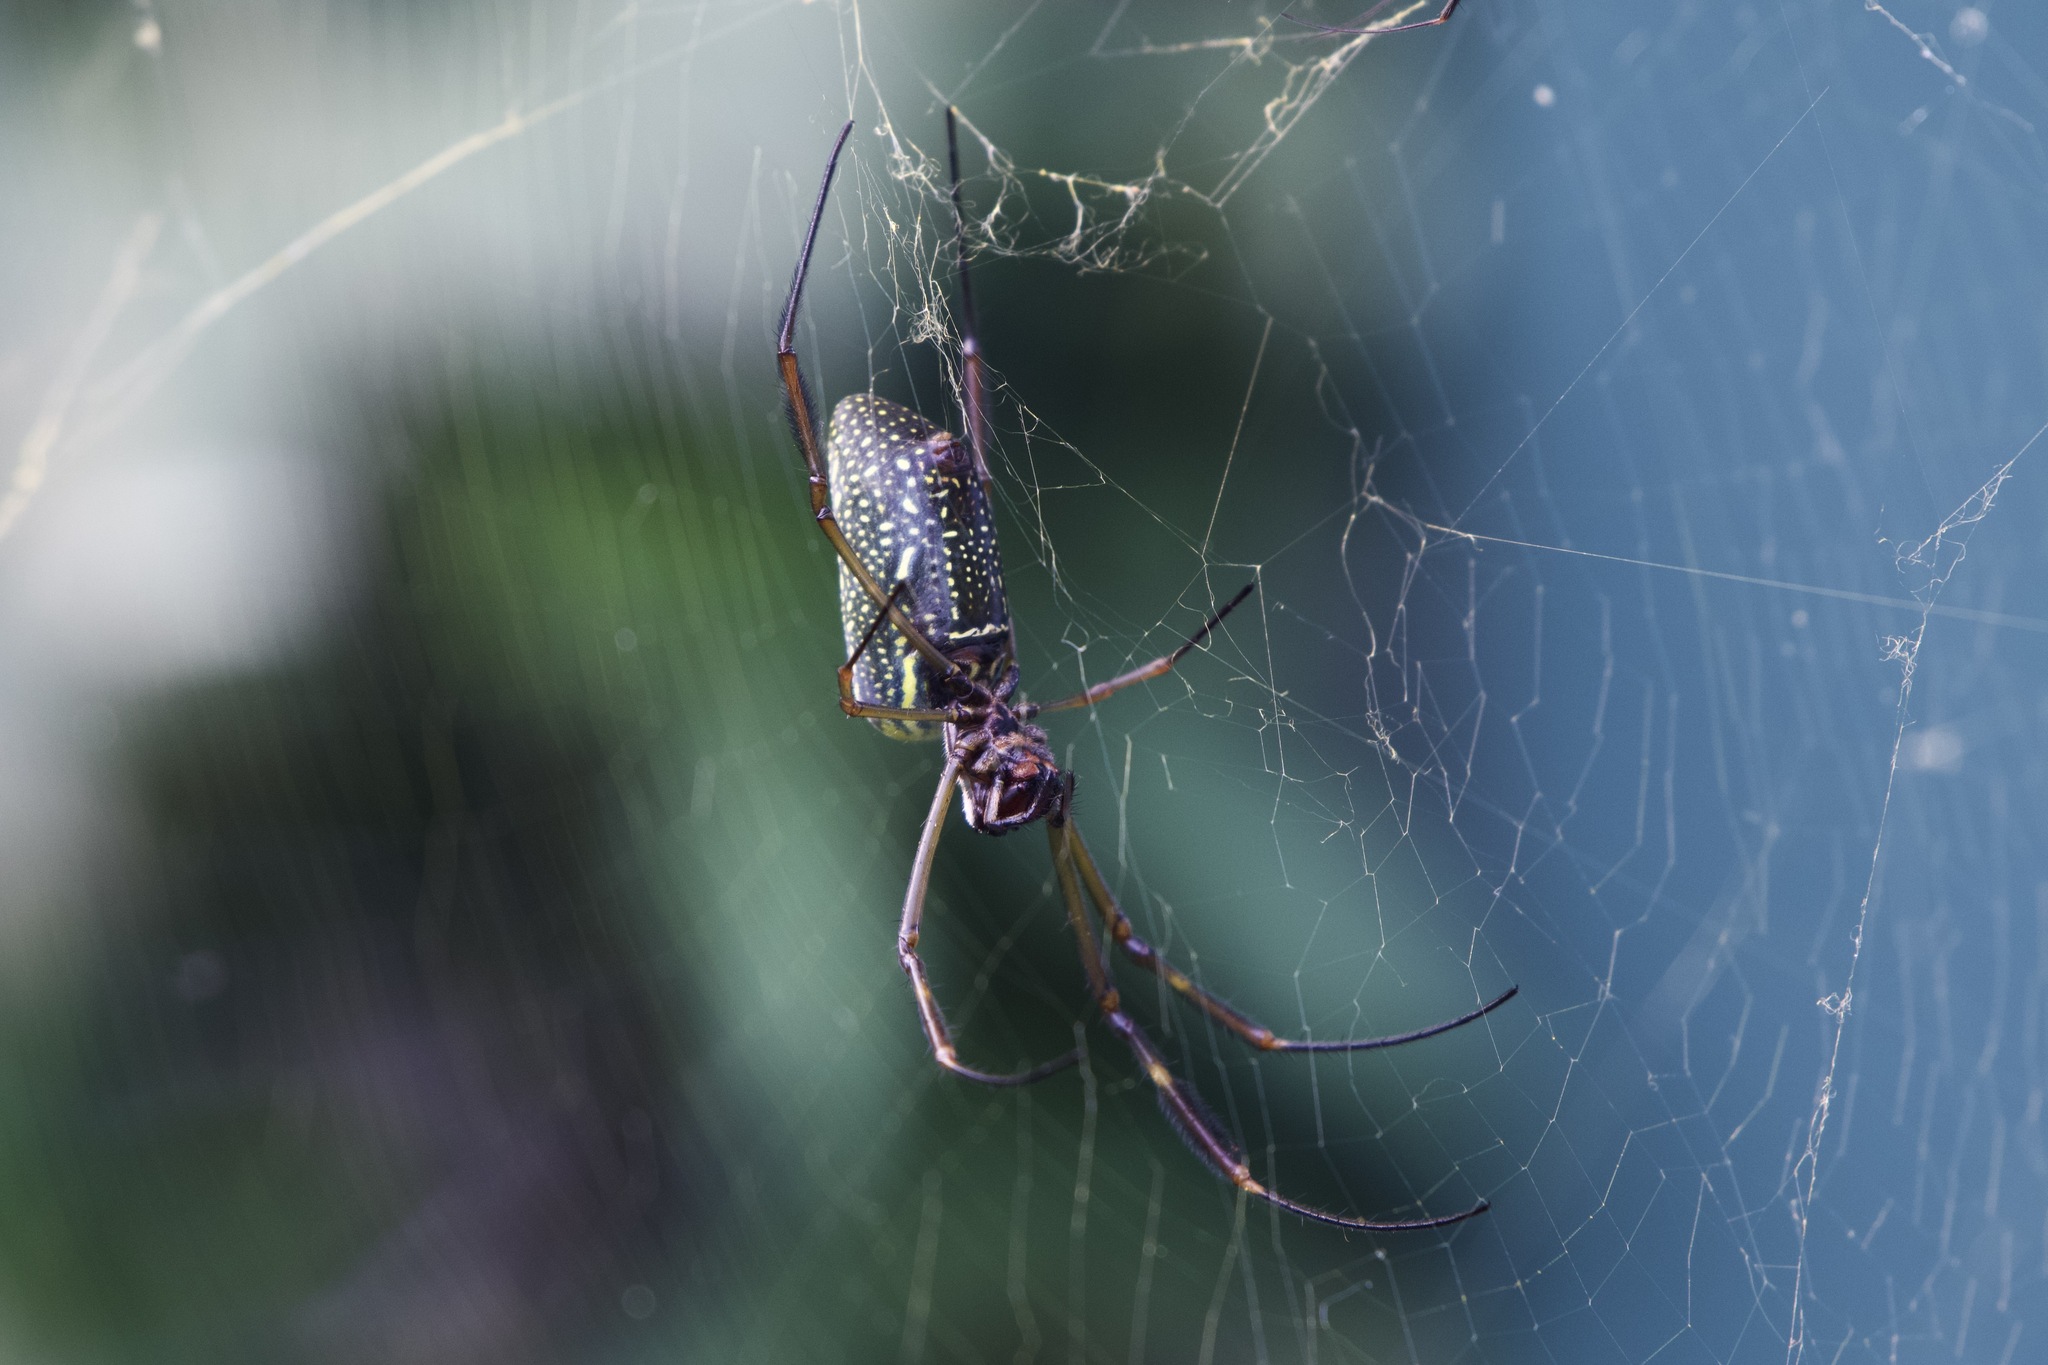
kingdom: Animalia
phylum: Arthropoda
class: Arachnida
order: Araneae
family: Araneidae
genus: Trichonephila
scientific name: Trichonephila clavipes
